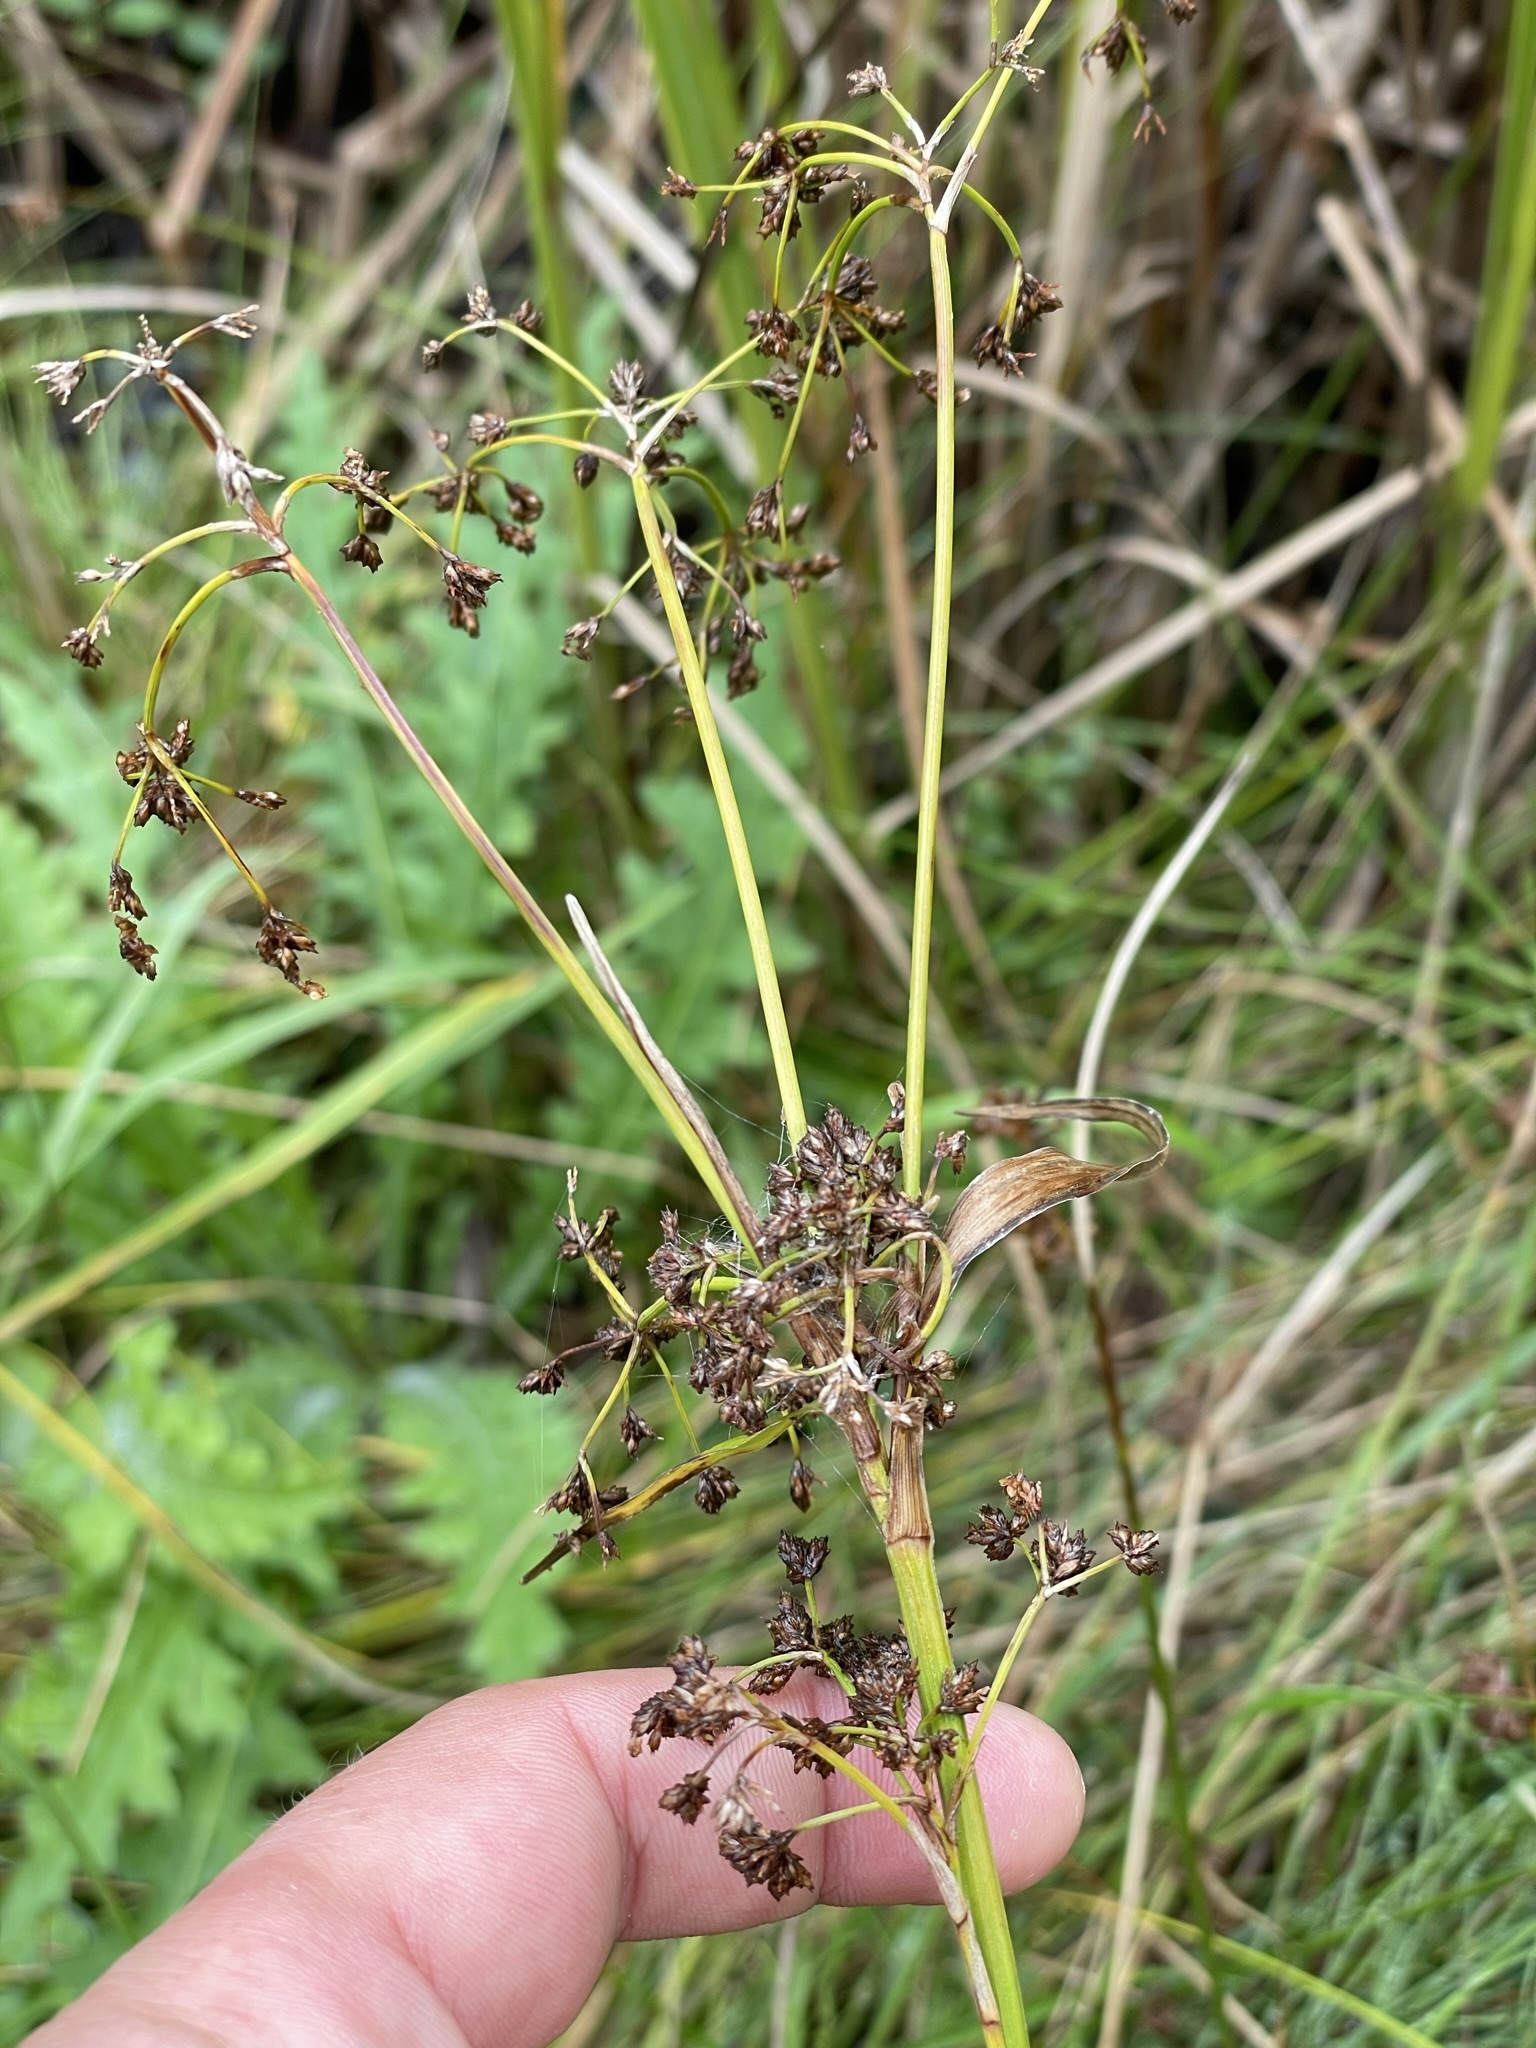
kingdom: Plantae
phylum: Tracheophyta
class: Liliopsida
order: Poales
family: Cyperaceae
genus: Scirpus
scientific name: Scirpus sylvaticus
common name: Wood club-rush
